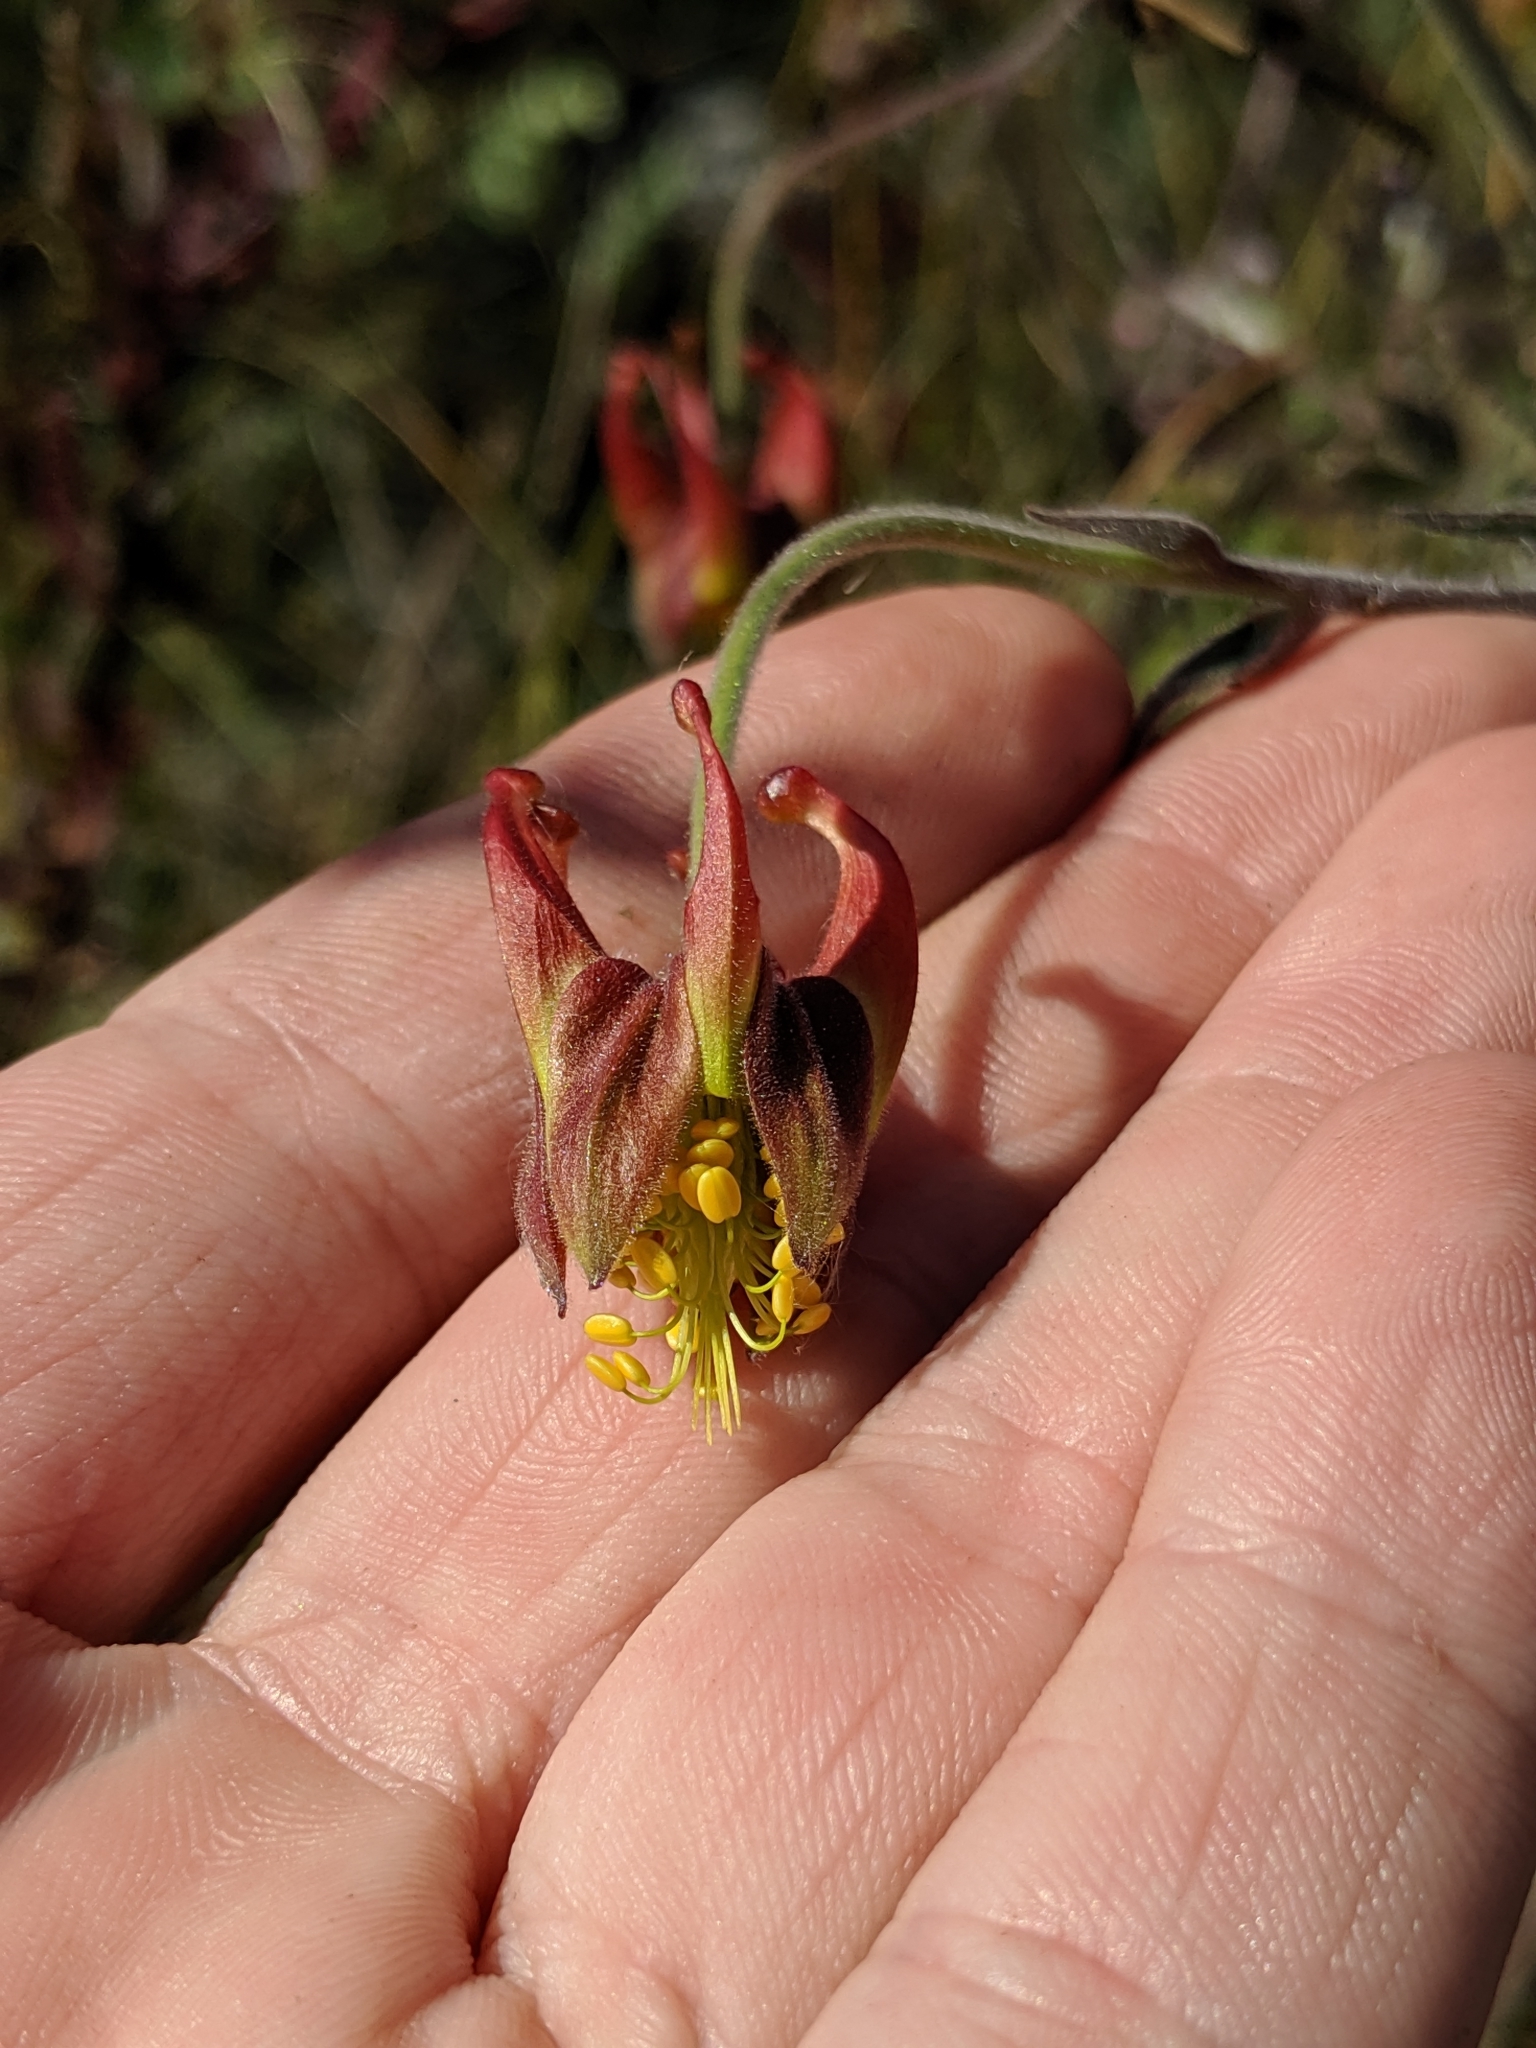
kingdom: Plantae
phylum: Tracheophyta
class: Magnoliopsida
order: Ranunculales
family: Ranunculaceae
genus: Aquilegia
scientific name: Aquilegia eximia
